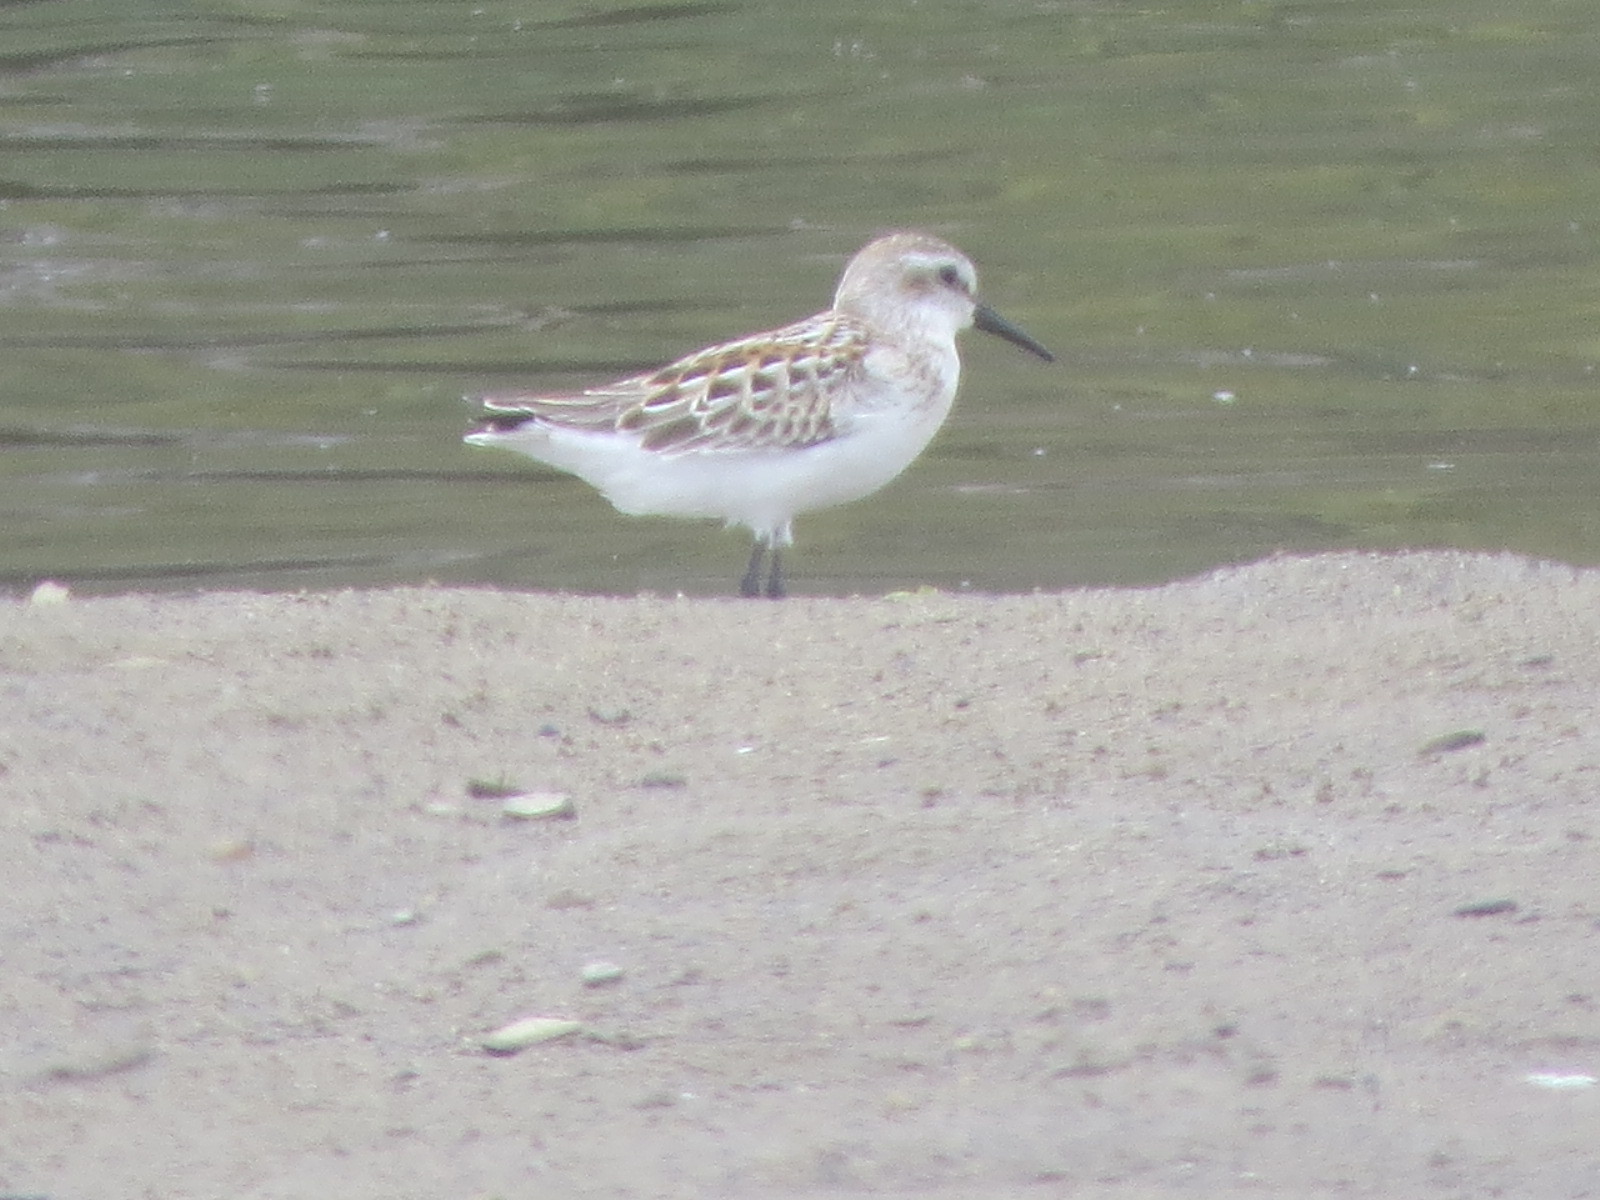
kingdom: Animalia
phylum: Chordata
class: Aves
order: Charadriiformes
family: Scolopacidae
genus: Calidris
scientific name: Calidris mauri
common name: Western sandpiper
